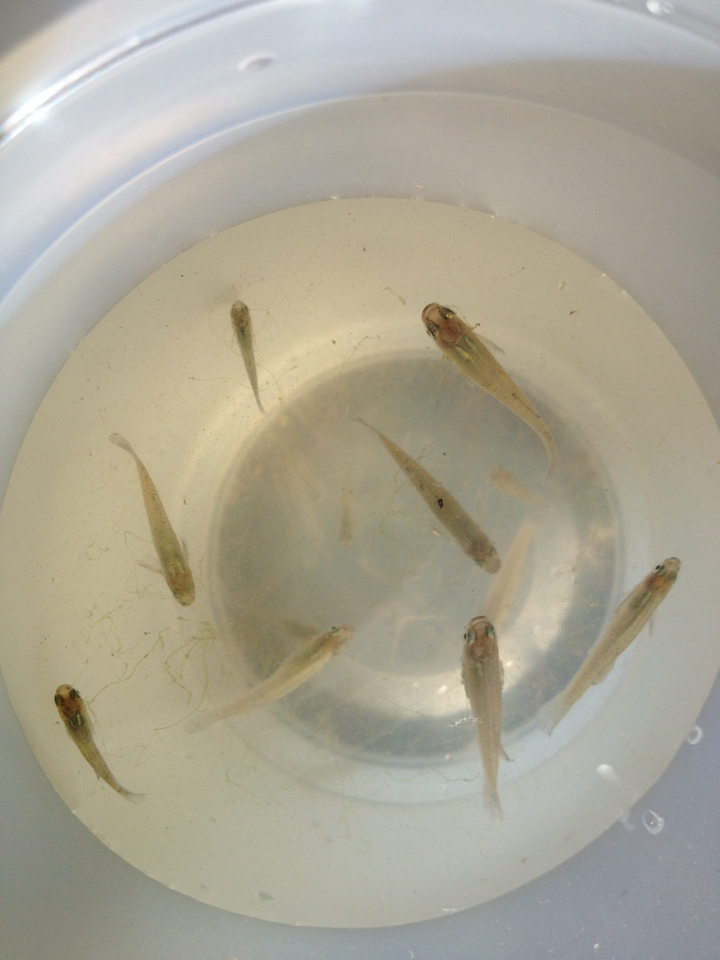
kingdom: Animalia
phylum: Chordata
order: Cyprinodontiformes
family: Poeciliidae
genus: Gambusia
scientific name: Gambusia affinis
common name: Mosquitofish
